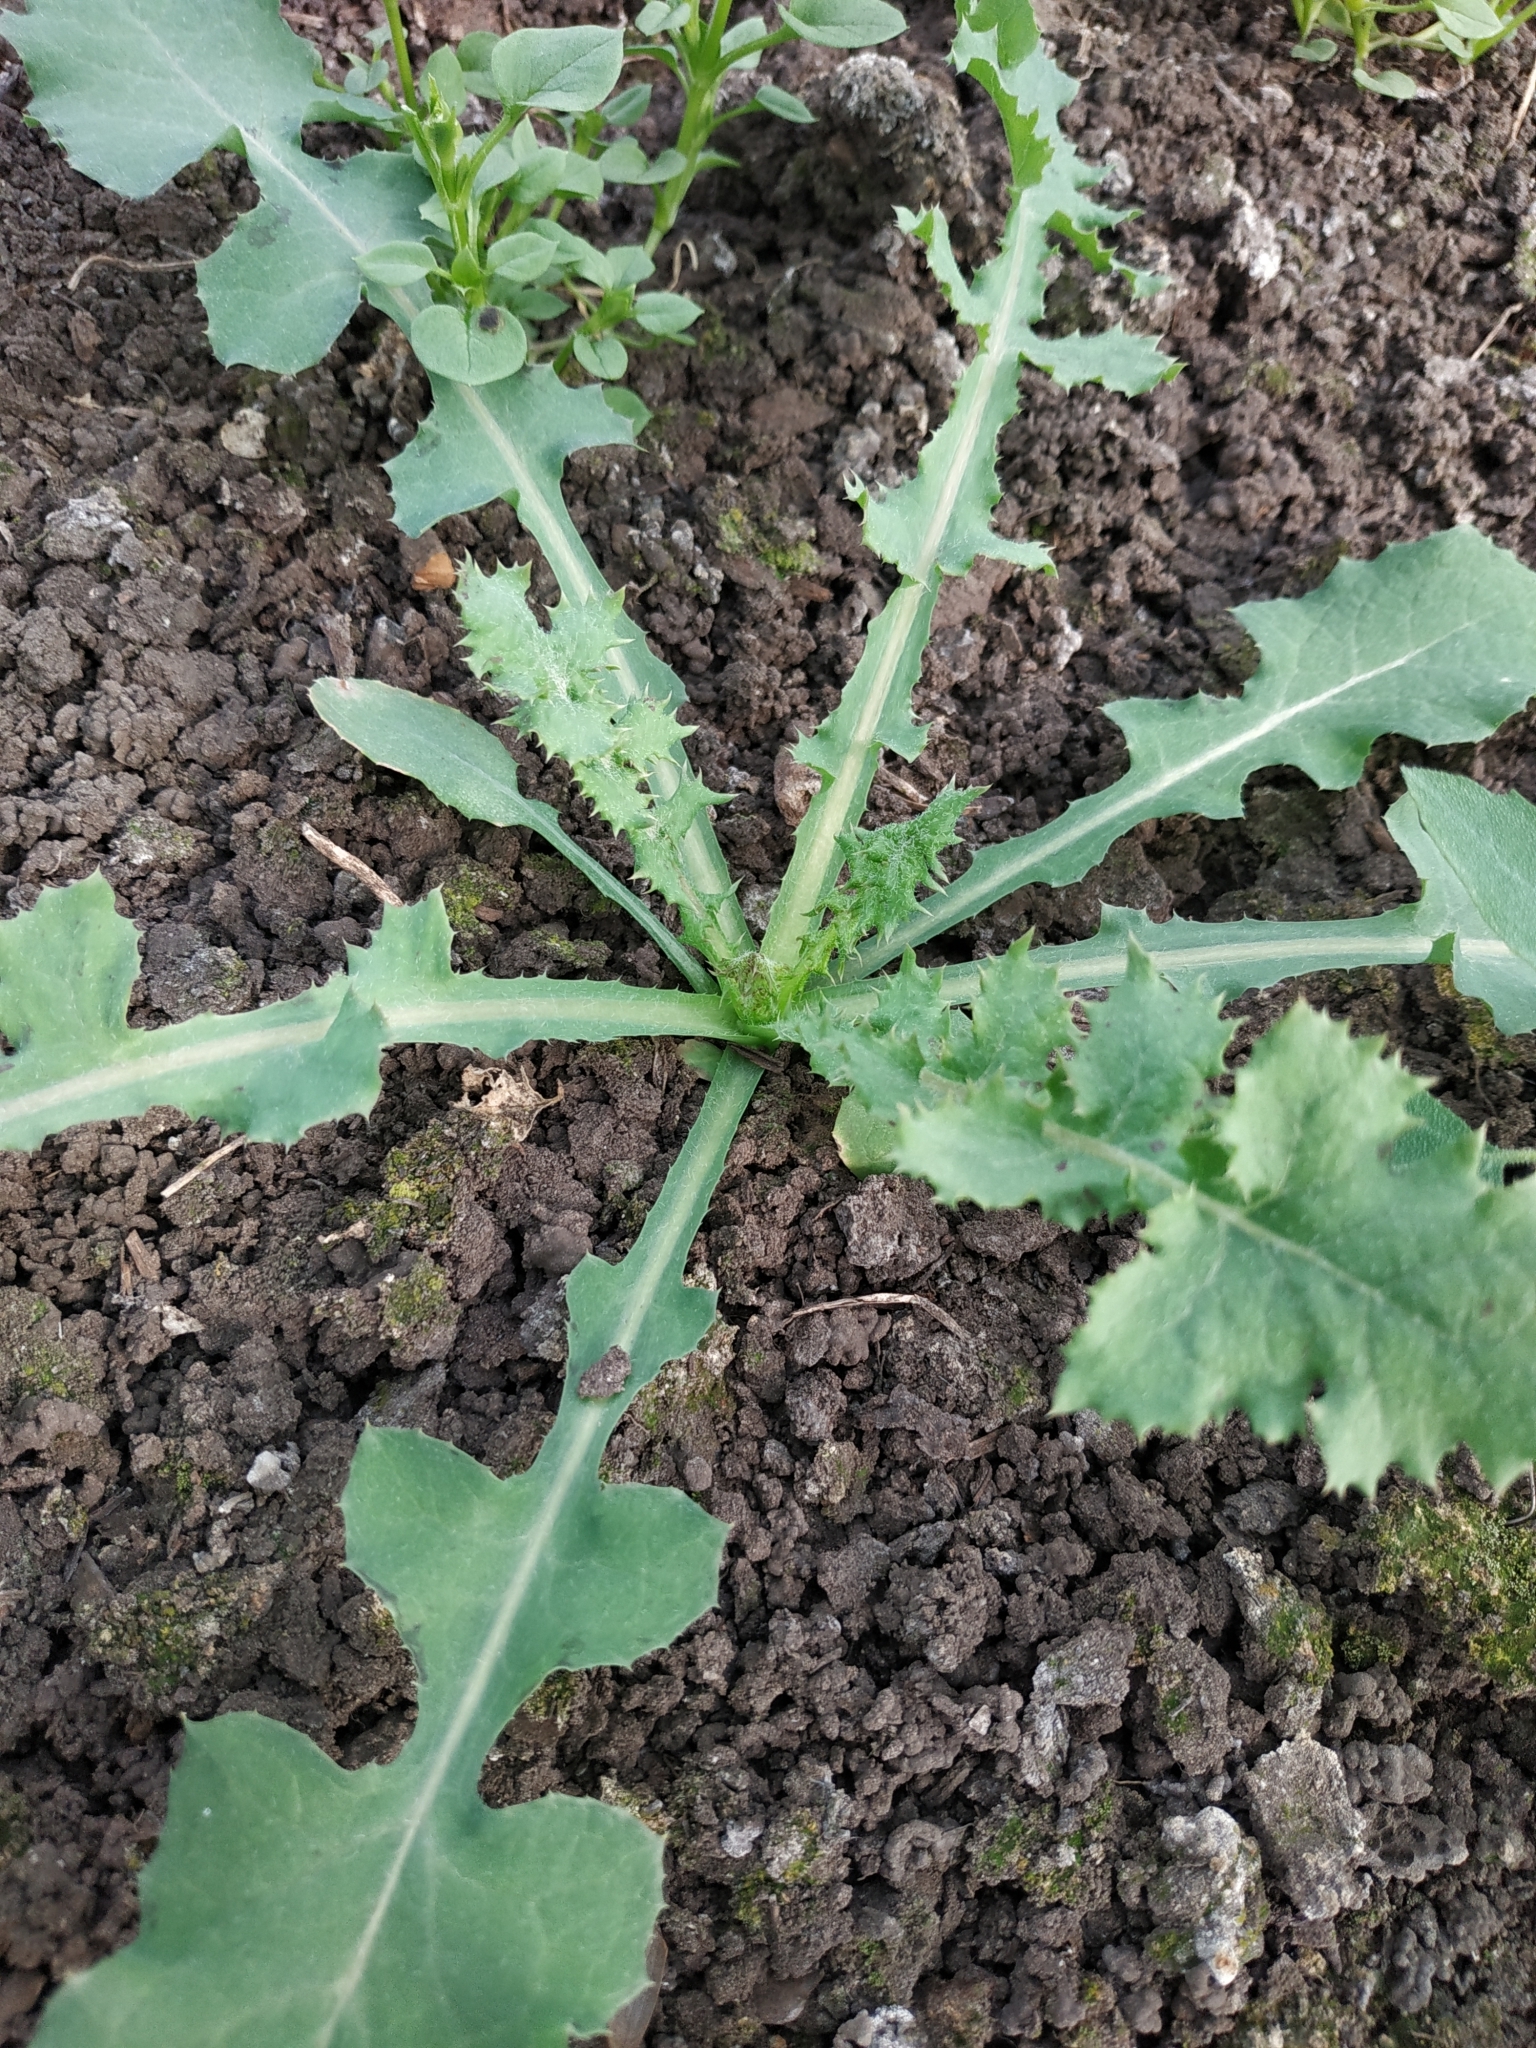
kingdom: Plantae
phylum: Tracheophyta
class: Magnoliopsida
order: Asterales
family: Asteraceae
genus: Sonchus
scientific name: Sonchus oleraceus
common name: Common sowthistle
